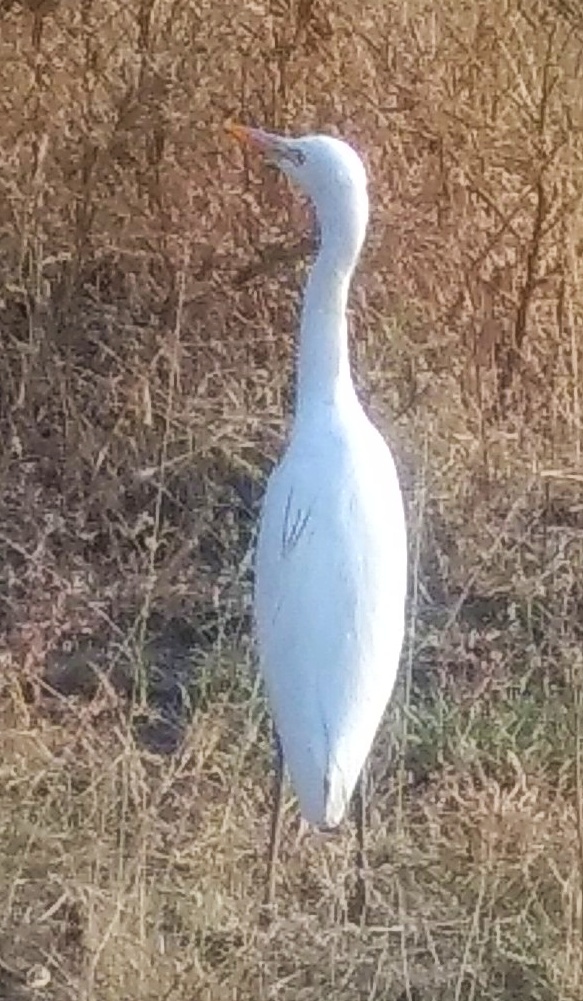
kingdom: Animalia
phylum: Chordata
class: Aves
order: Pelecaniformes
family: Ardeidae
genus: Bubulcus
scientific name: Bubulcus coromandus
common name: Eastern cattle egret
